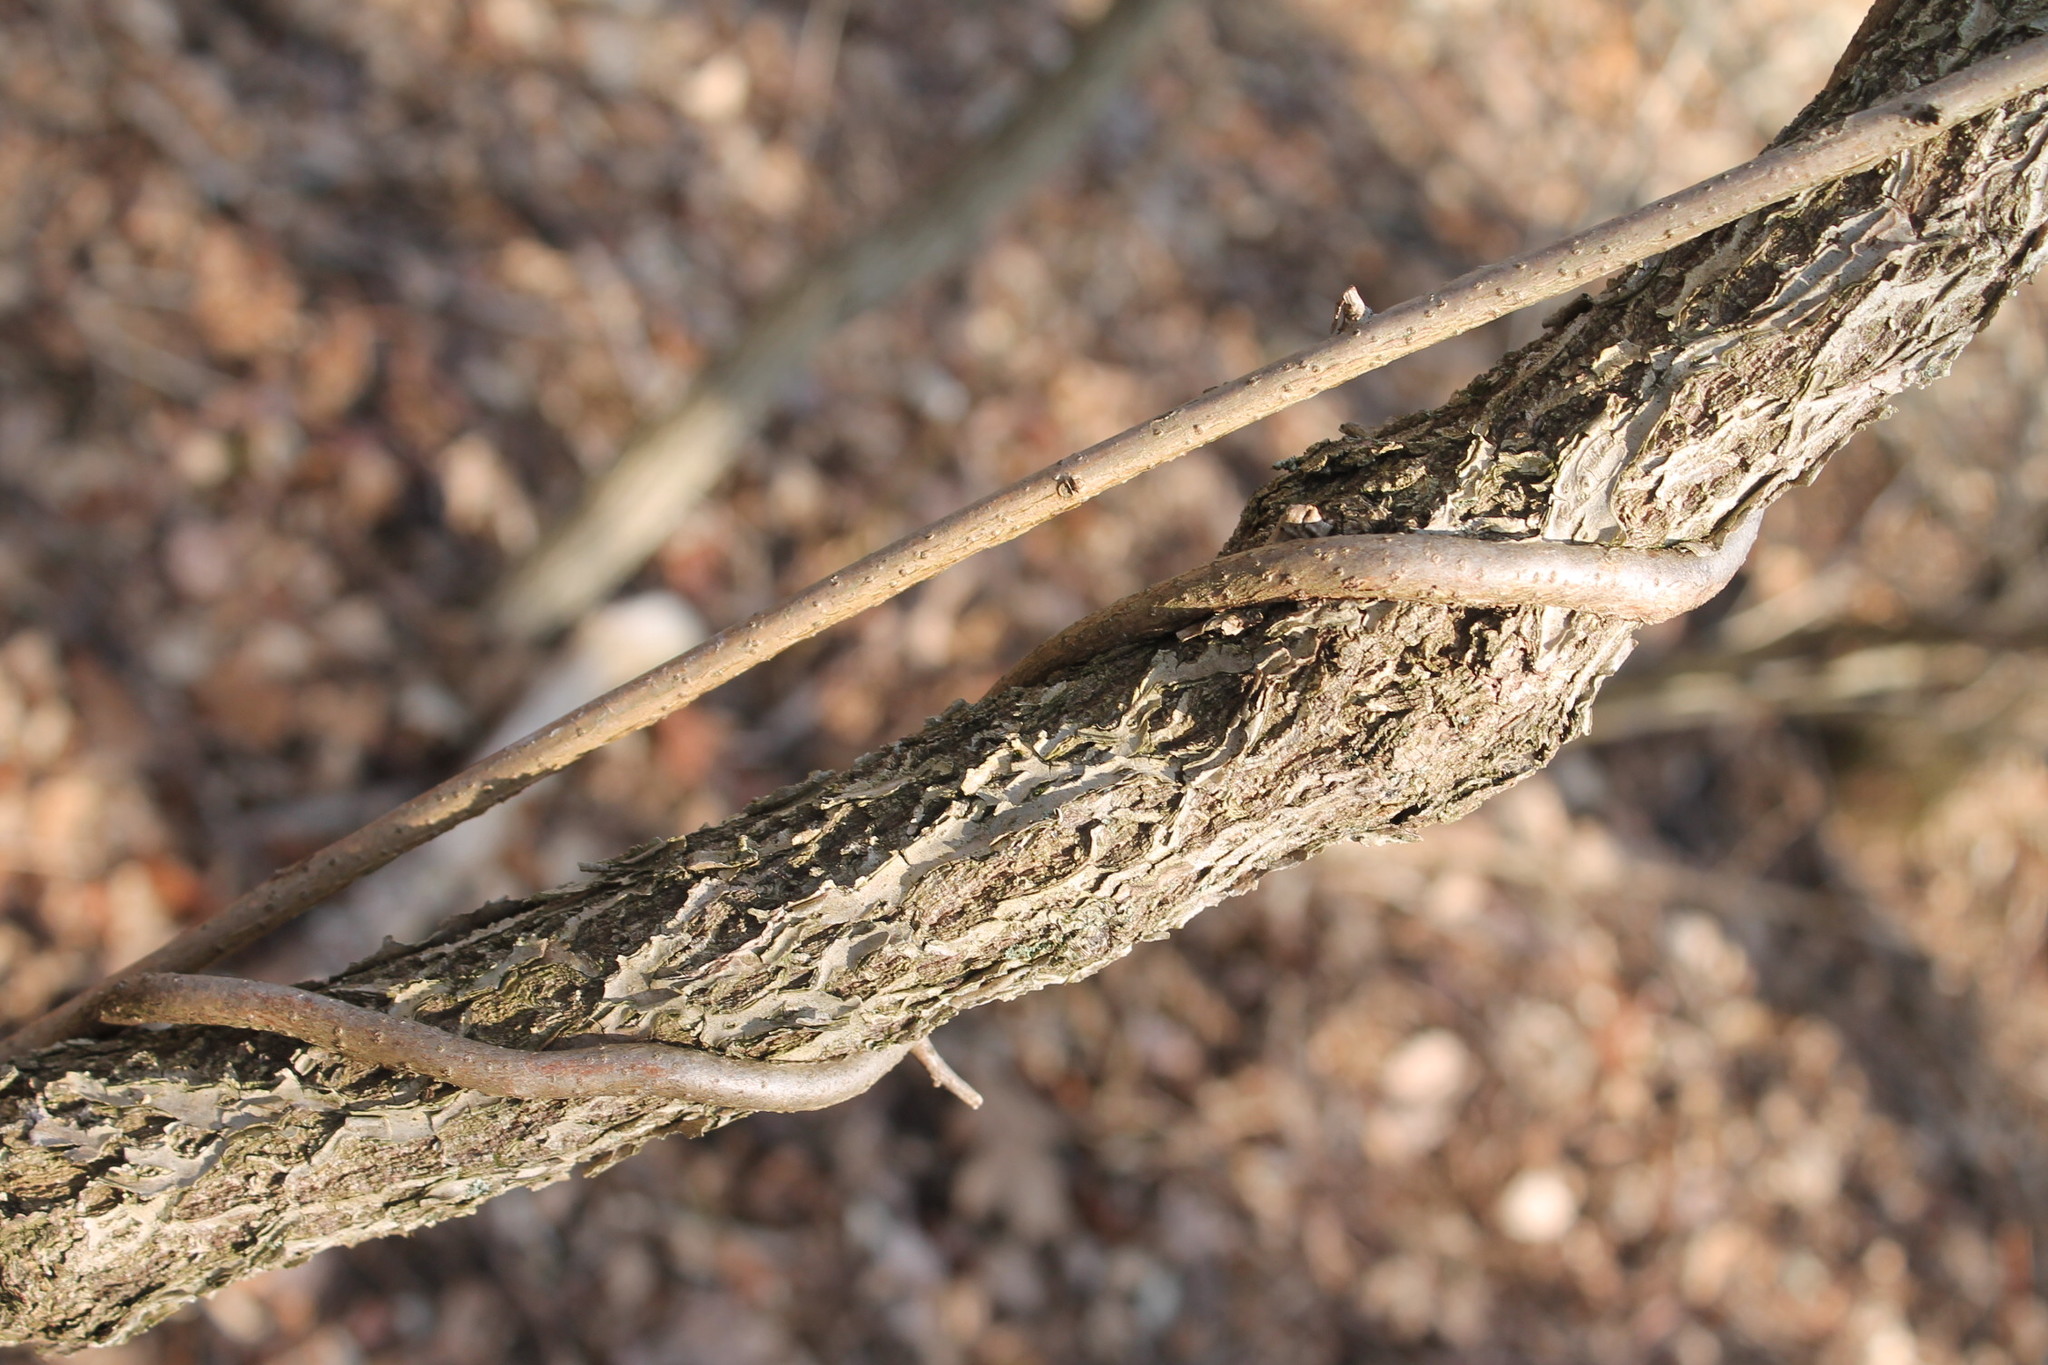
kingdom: Plantae
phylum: Tracheophyta
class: Magnoliopsida
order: Celastrales
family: Celastraceae
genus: Celastrus
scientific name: Celastrus orbiculatus
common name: Oriental bittersweet
